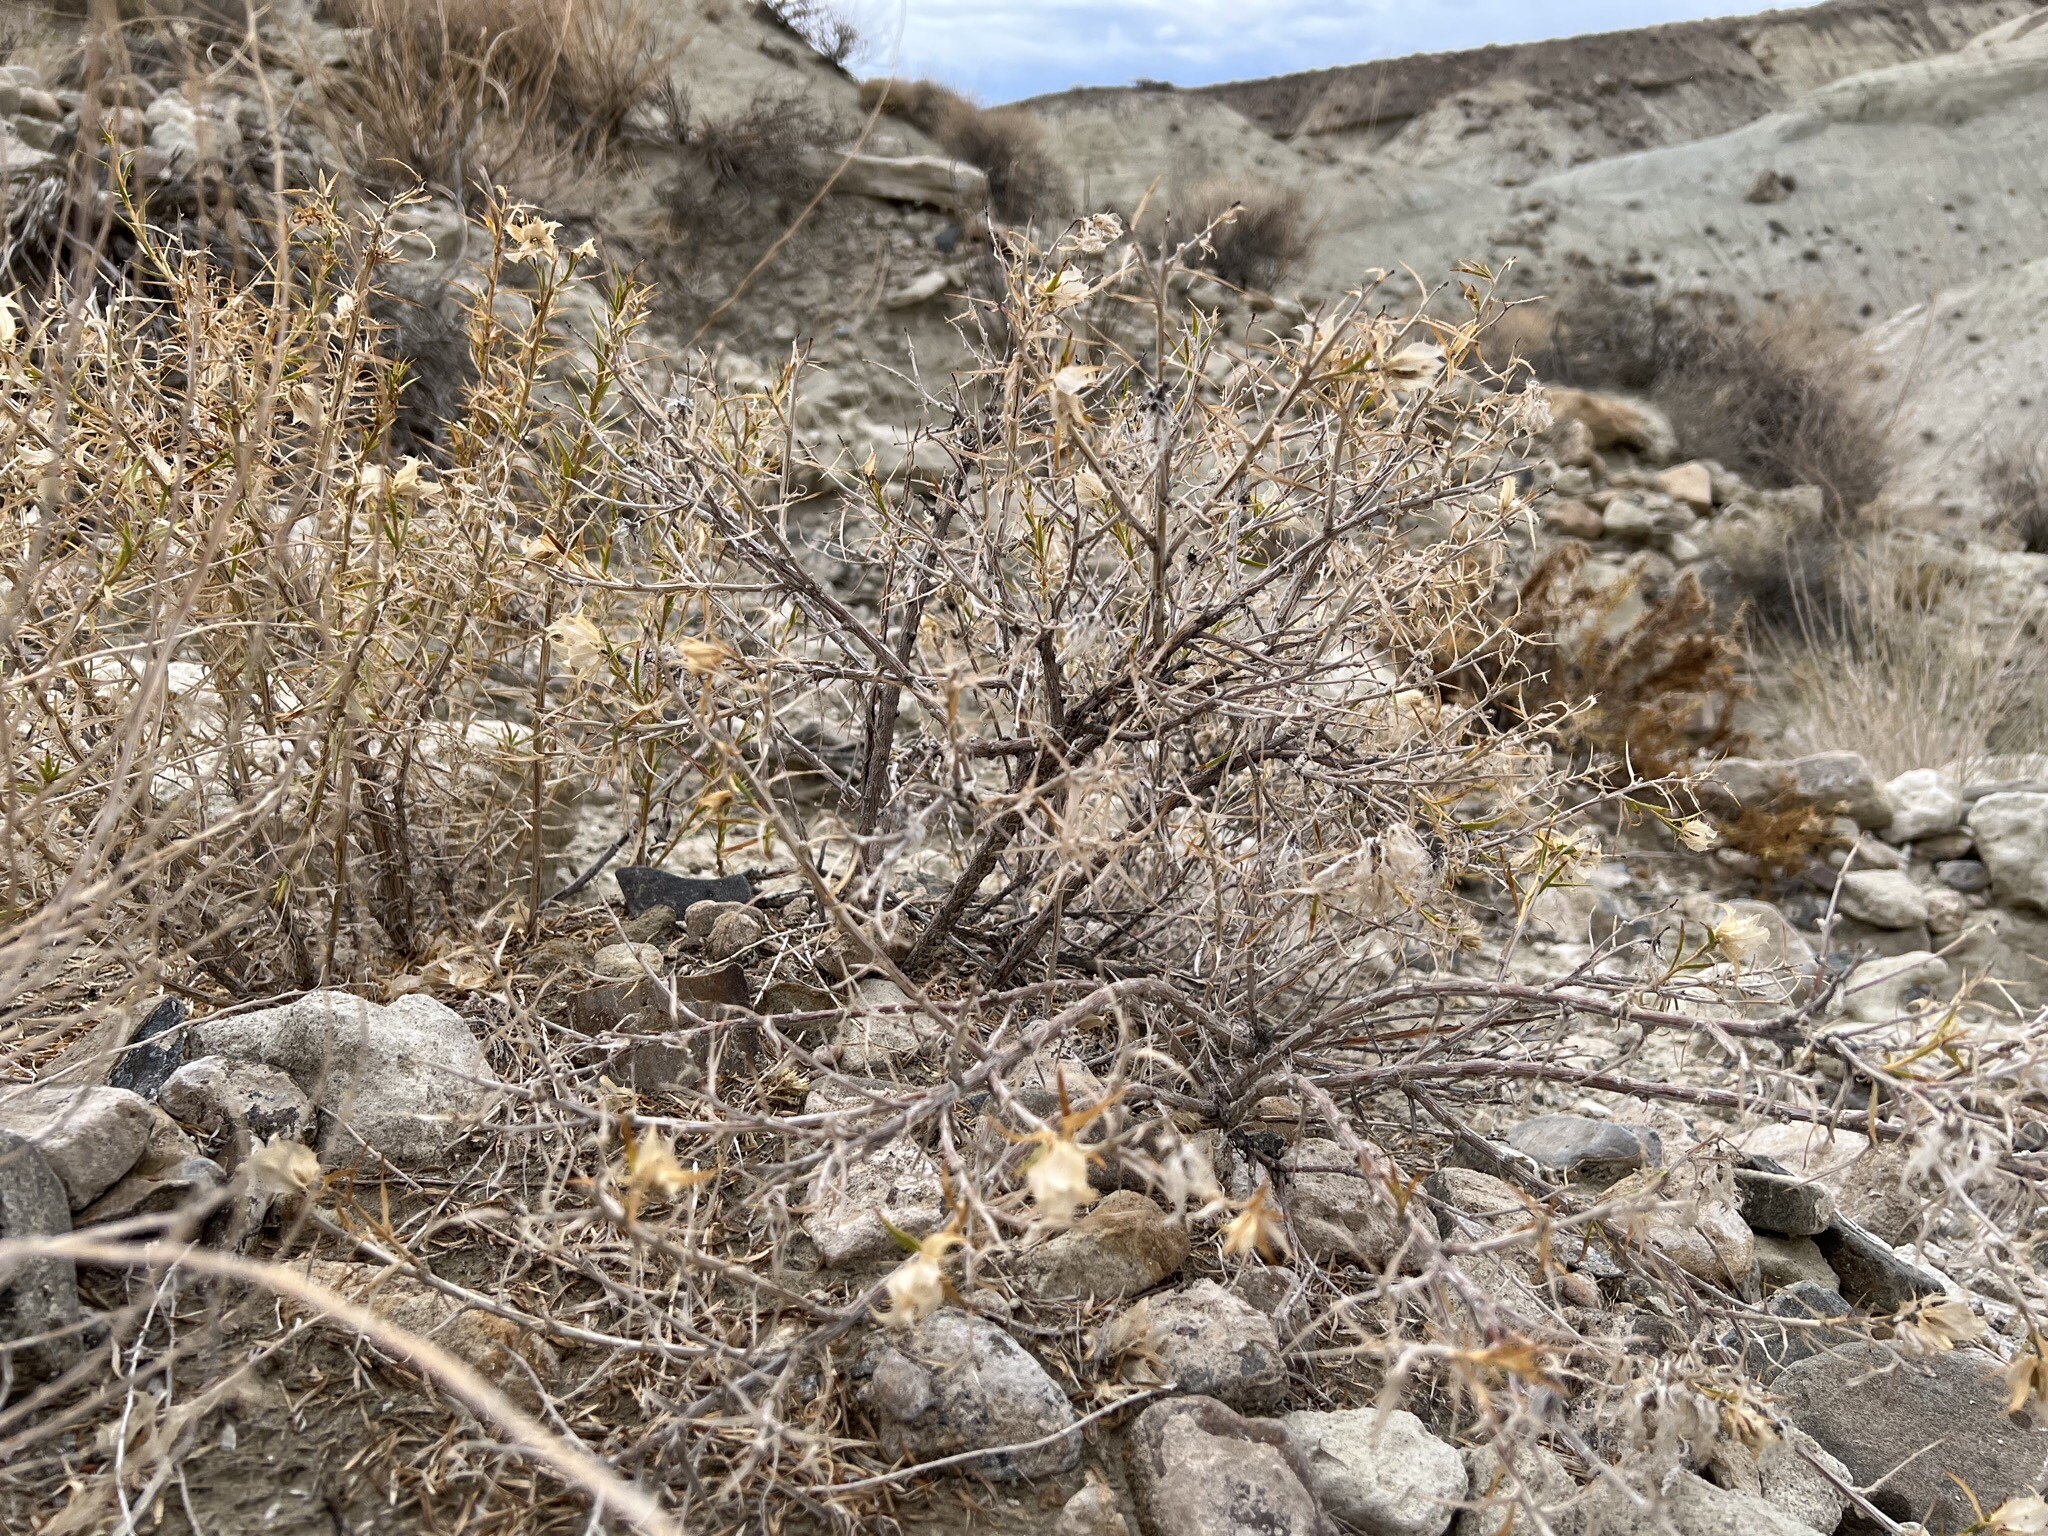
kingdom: Plantae
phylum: Tracheophyta
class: Magnoliopsida
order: Asterales
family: Asteraceae
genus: Hecastocleis
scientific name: Hecastocleis shockleyi
